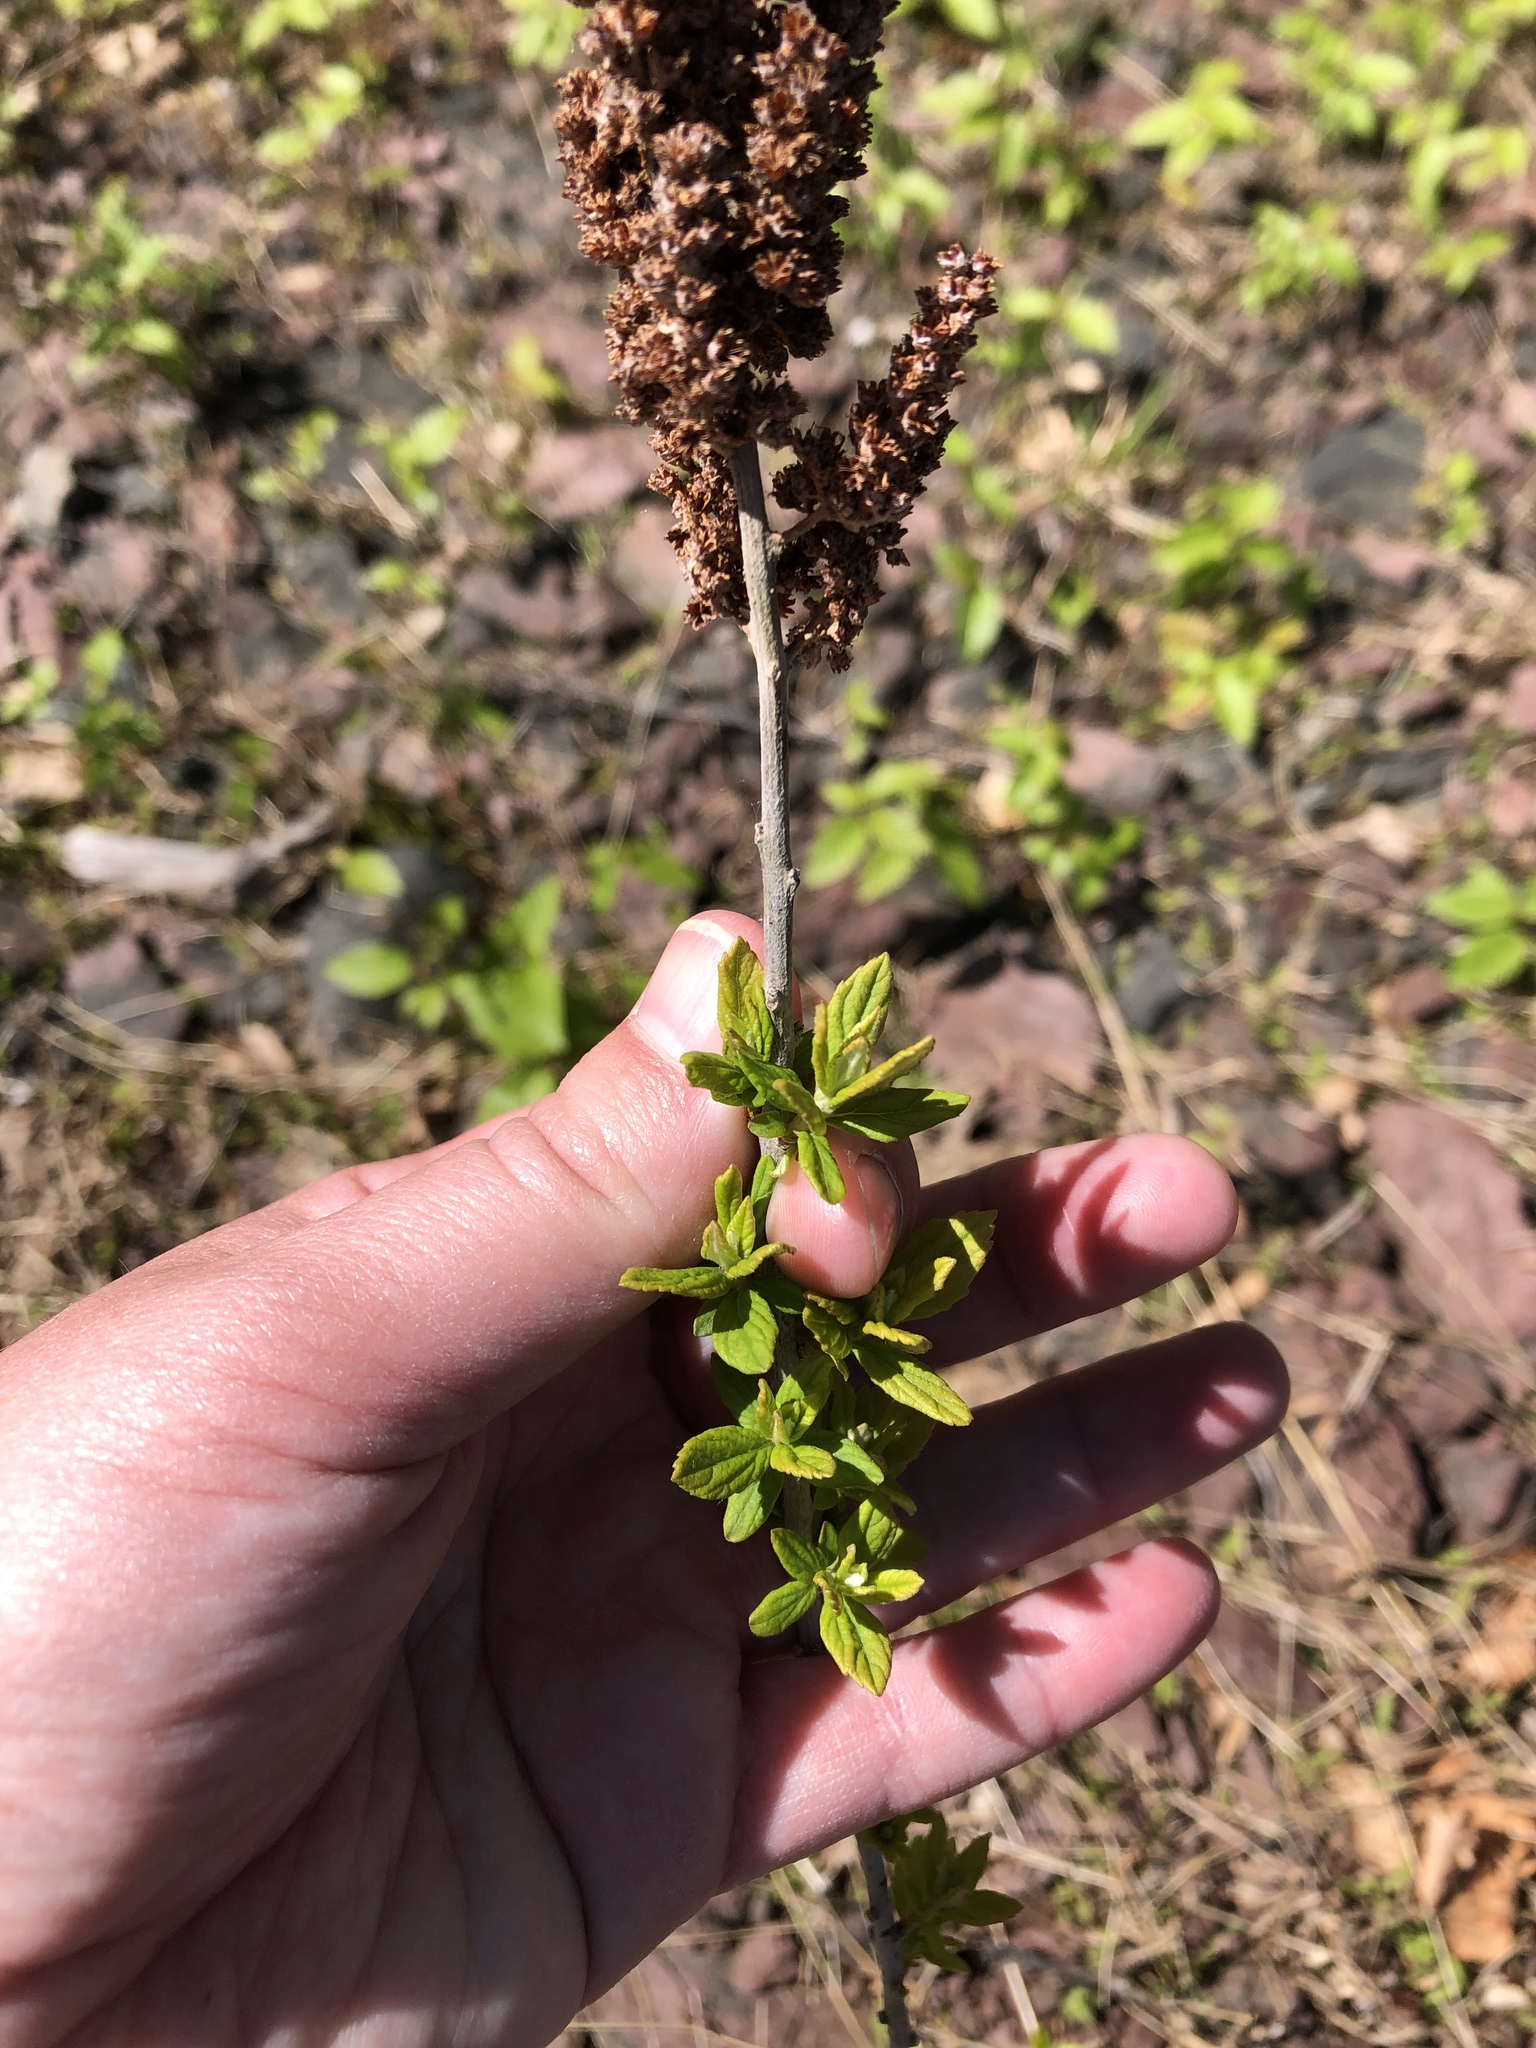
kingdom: Plantae
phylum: Tracheophyta
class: Magnoliopsida
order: Rosales
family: Rosaceae
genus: Spiraea
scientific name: Spiraea tomentosa
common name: Hardhack
